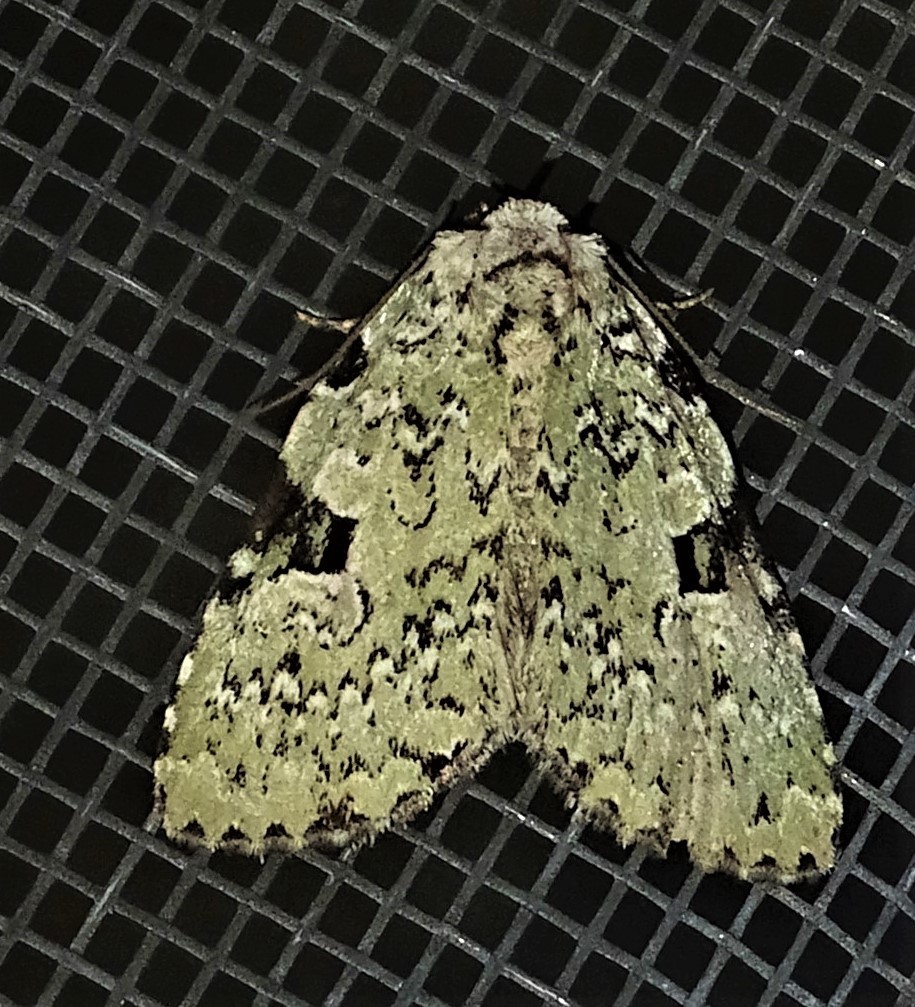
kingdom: Animalia
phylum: Arthropoda
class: Insecta
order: Lepidoptera
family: Noctuidae
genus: Leuconycta
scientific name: Leuconycta diphteroides
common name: Green leuconycta moth
